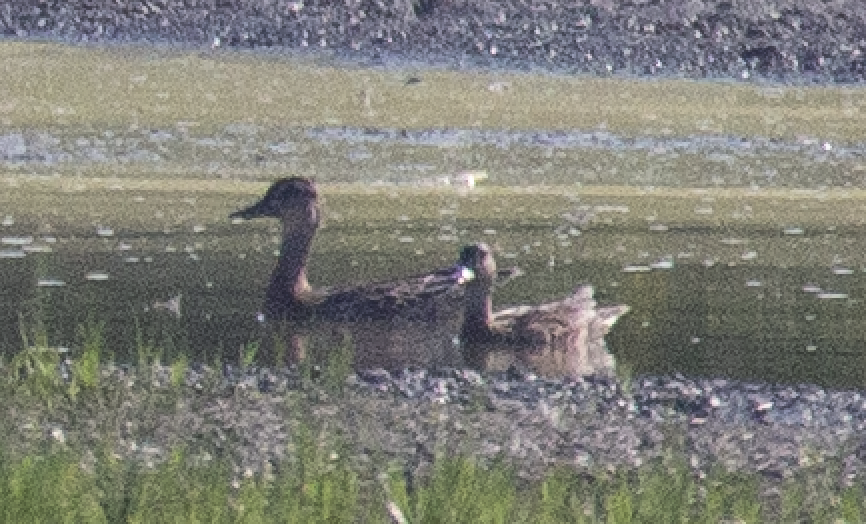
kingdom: Animalia
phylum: Chordata
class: Aves
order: Anseriformes
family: Anatidae
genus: Spatula
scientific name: Spatula querquedula
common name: Garganey
